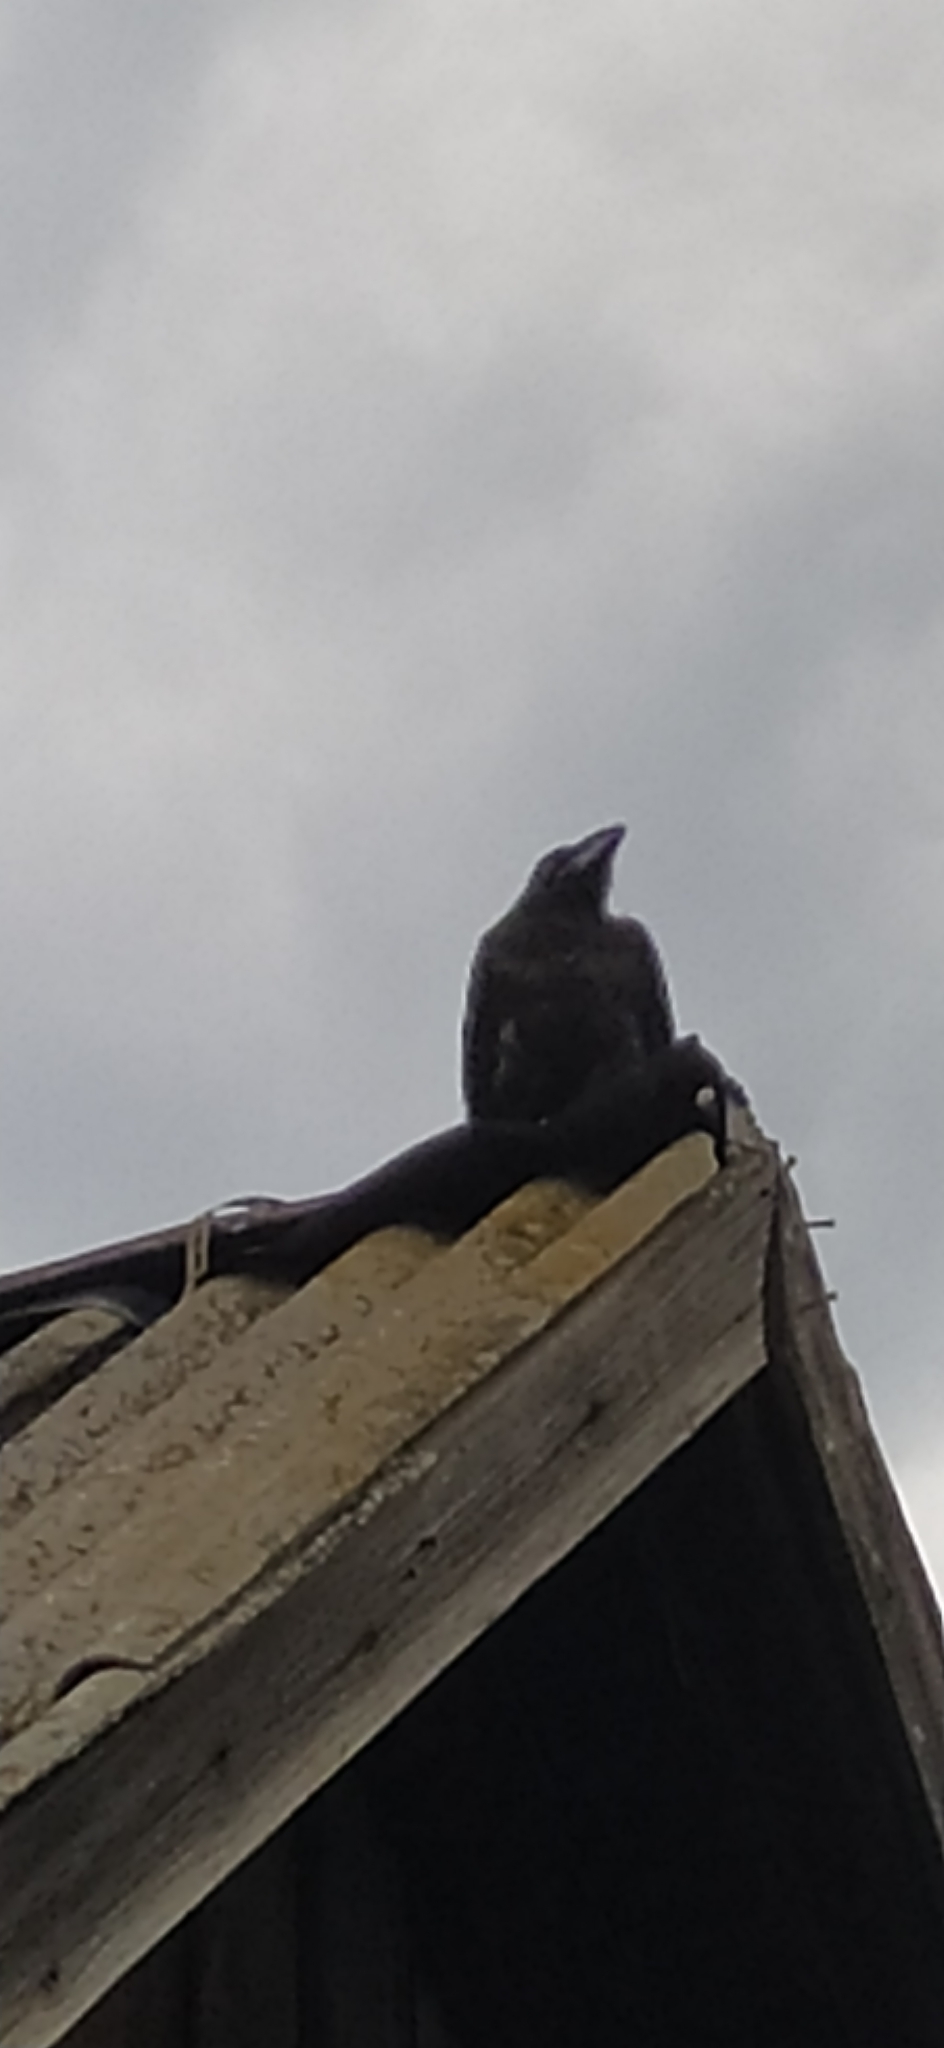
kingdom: Animalia
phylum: Chordata
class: Aves
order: Passeriformes
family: Corvidae
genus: Corvus
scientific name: Corvus corax
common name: Common raven
